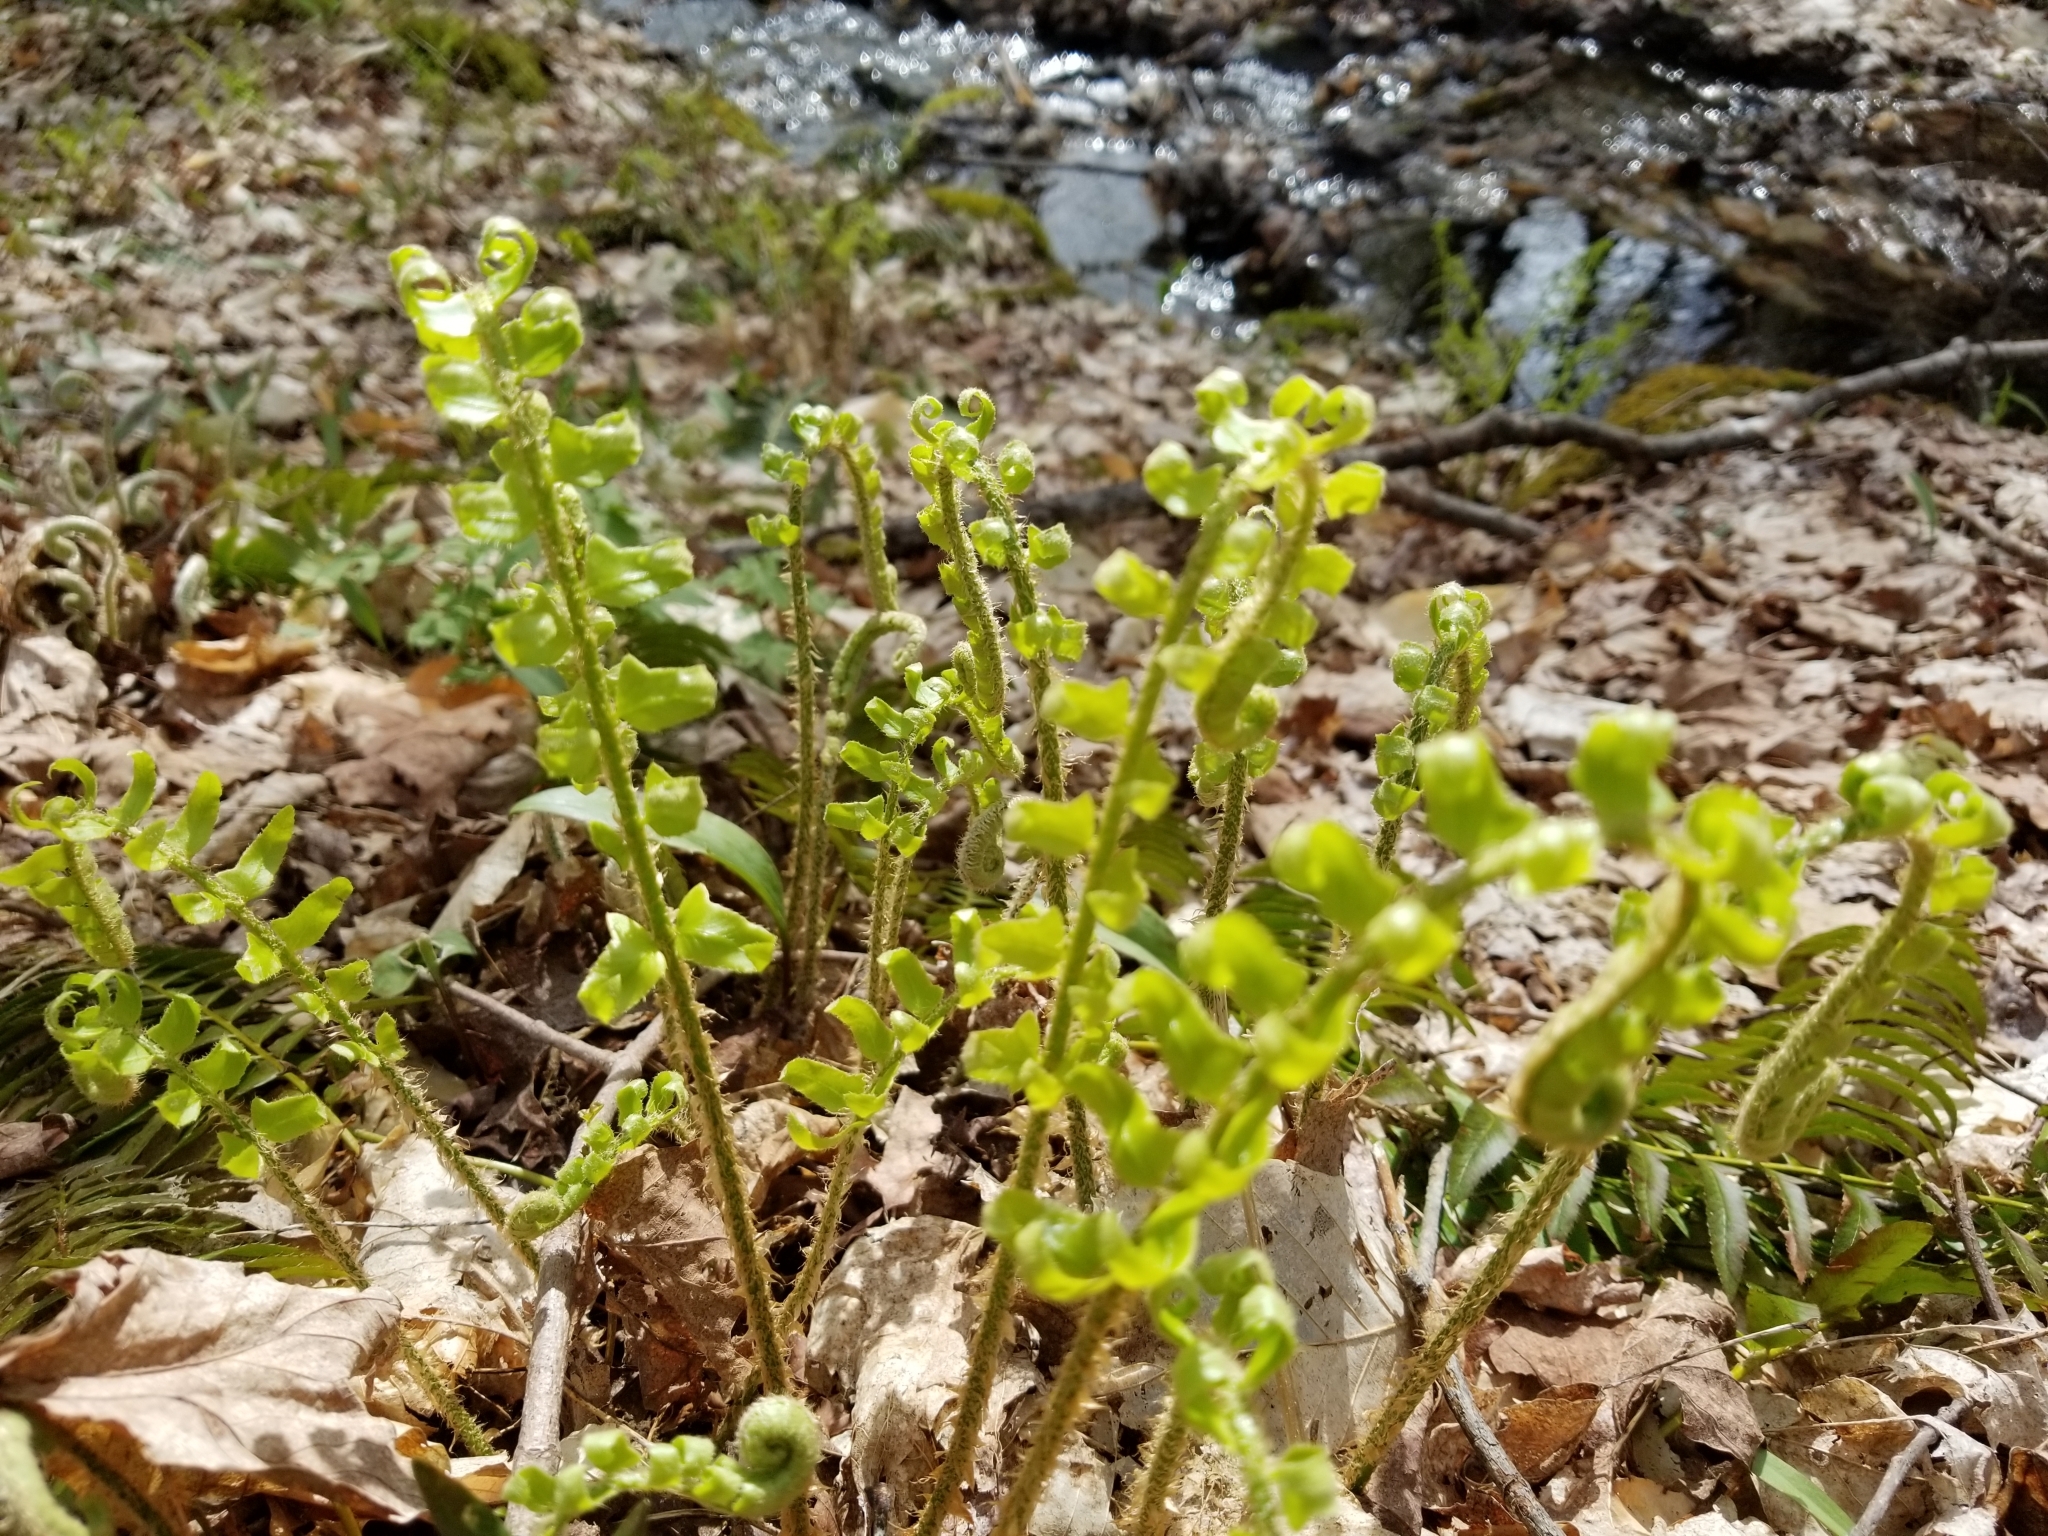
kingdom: Plantae
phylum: Tracheophyta
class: Polypodiopsida
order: Polypodiales
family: Dryopteridaceae
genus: Polystichum
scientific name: Polystichum acrostichoides
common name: Christmas fern
